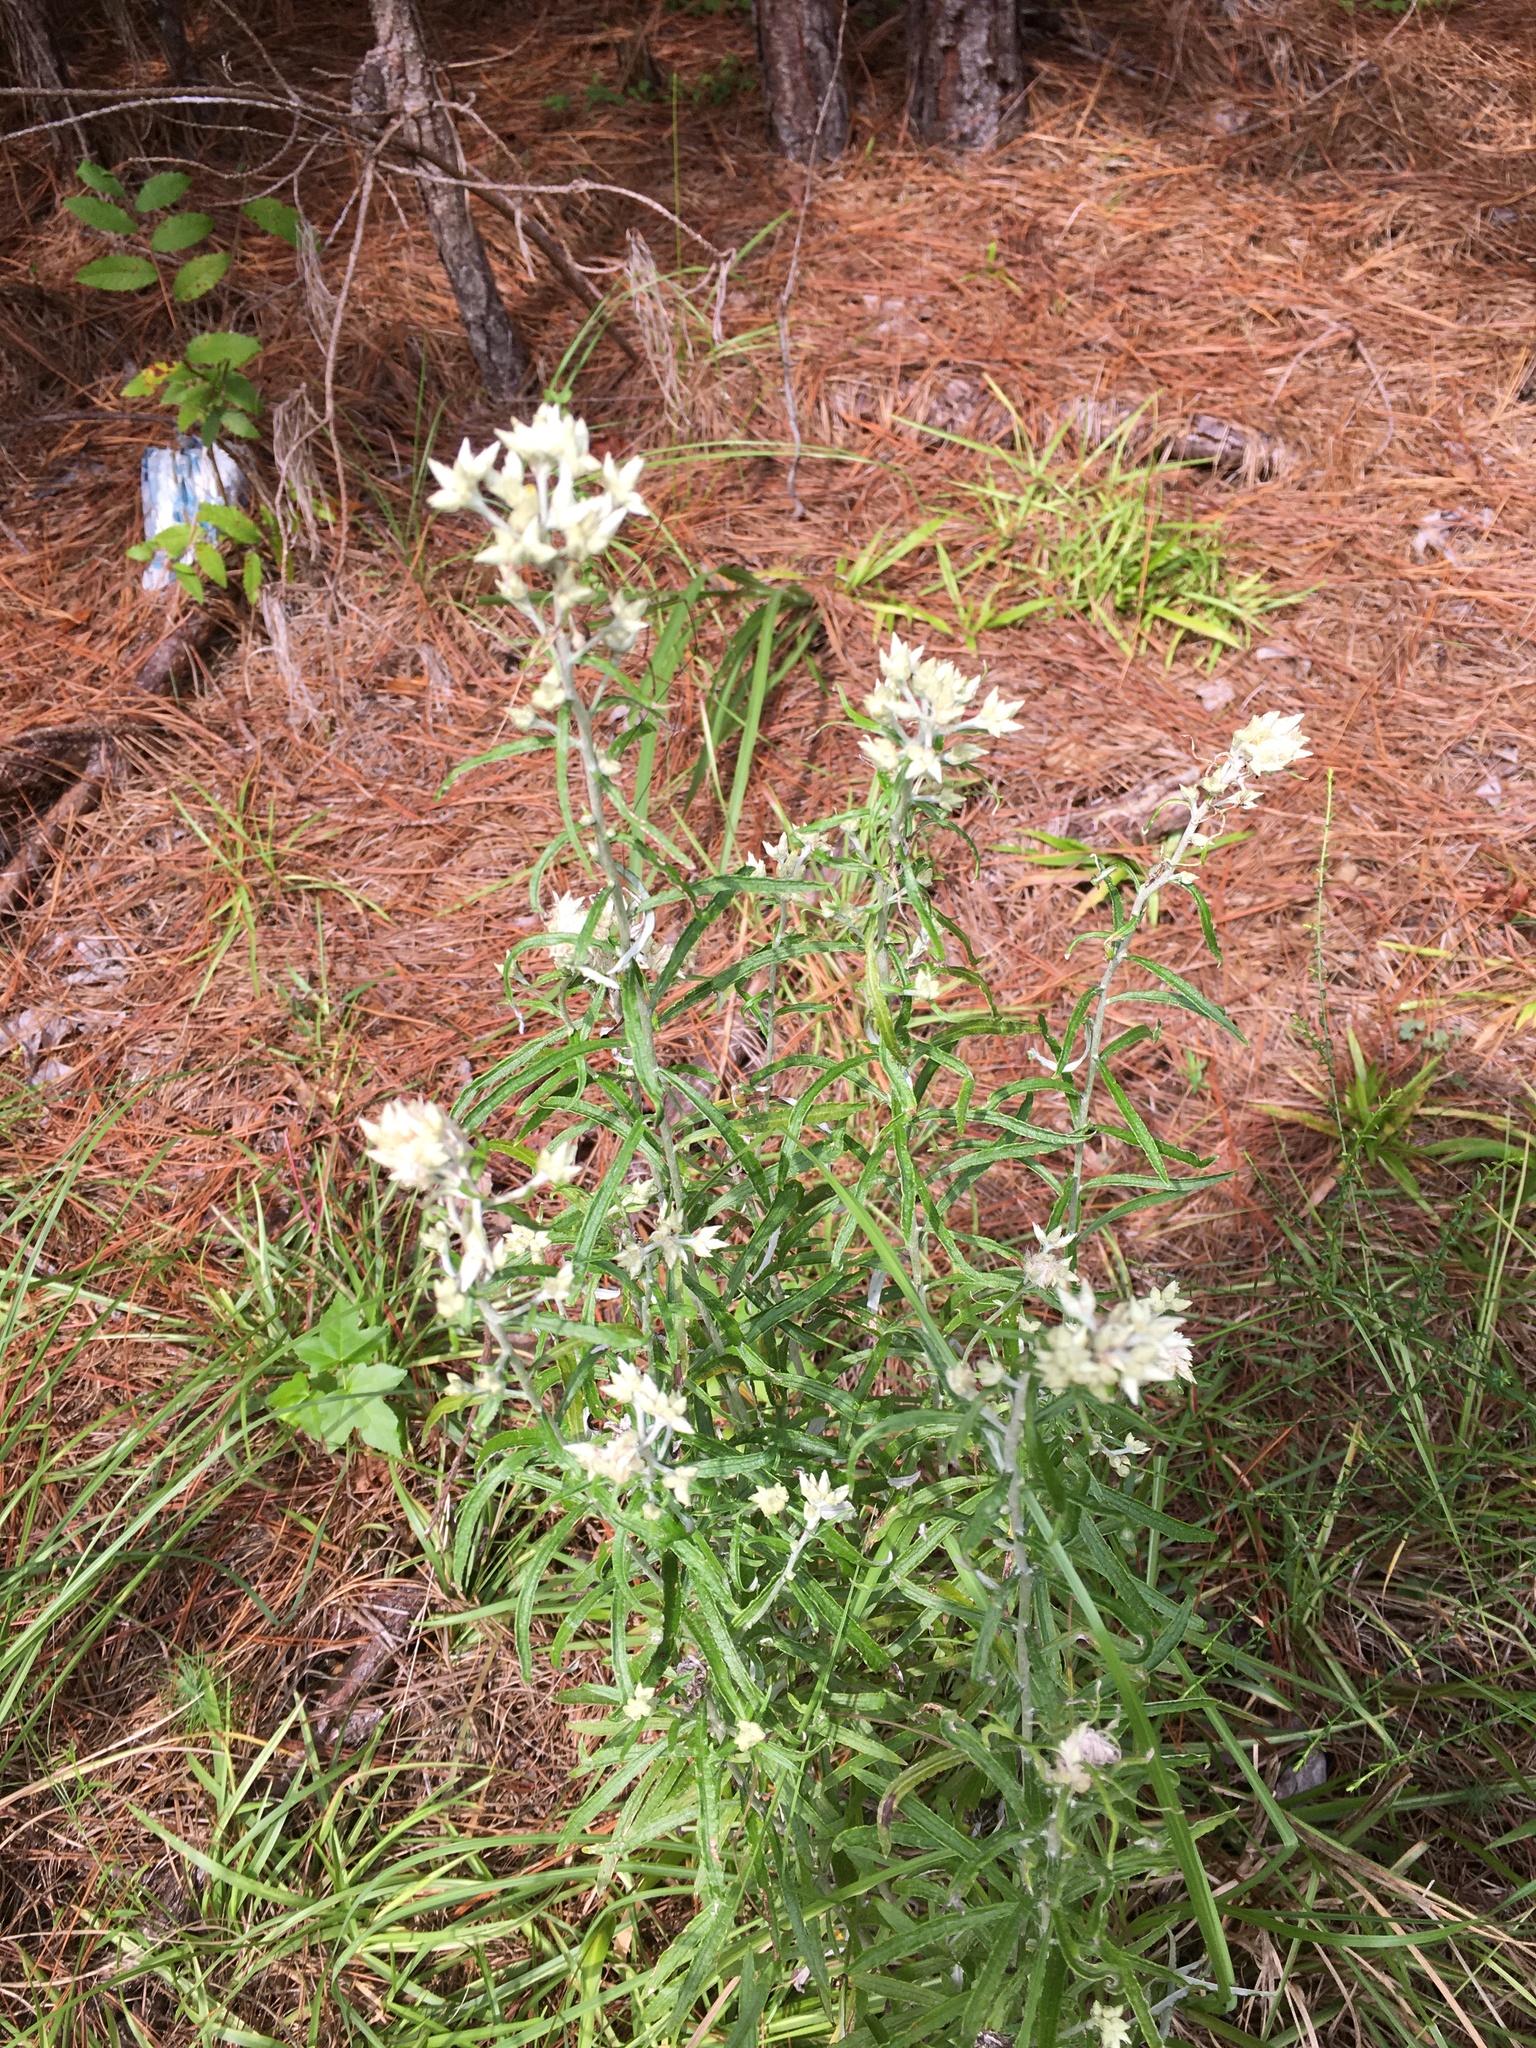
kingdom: Plantae
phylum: Tracheophyta
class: Magnoliopsida
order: Asterales
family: Asteraceae
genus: Pseudognaphalium
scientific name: Pseudognaphalium obtusifolium
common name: Eastern rabbit-tobacco
